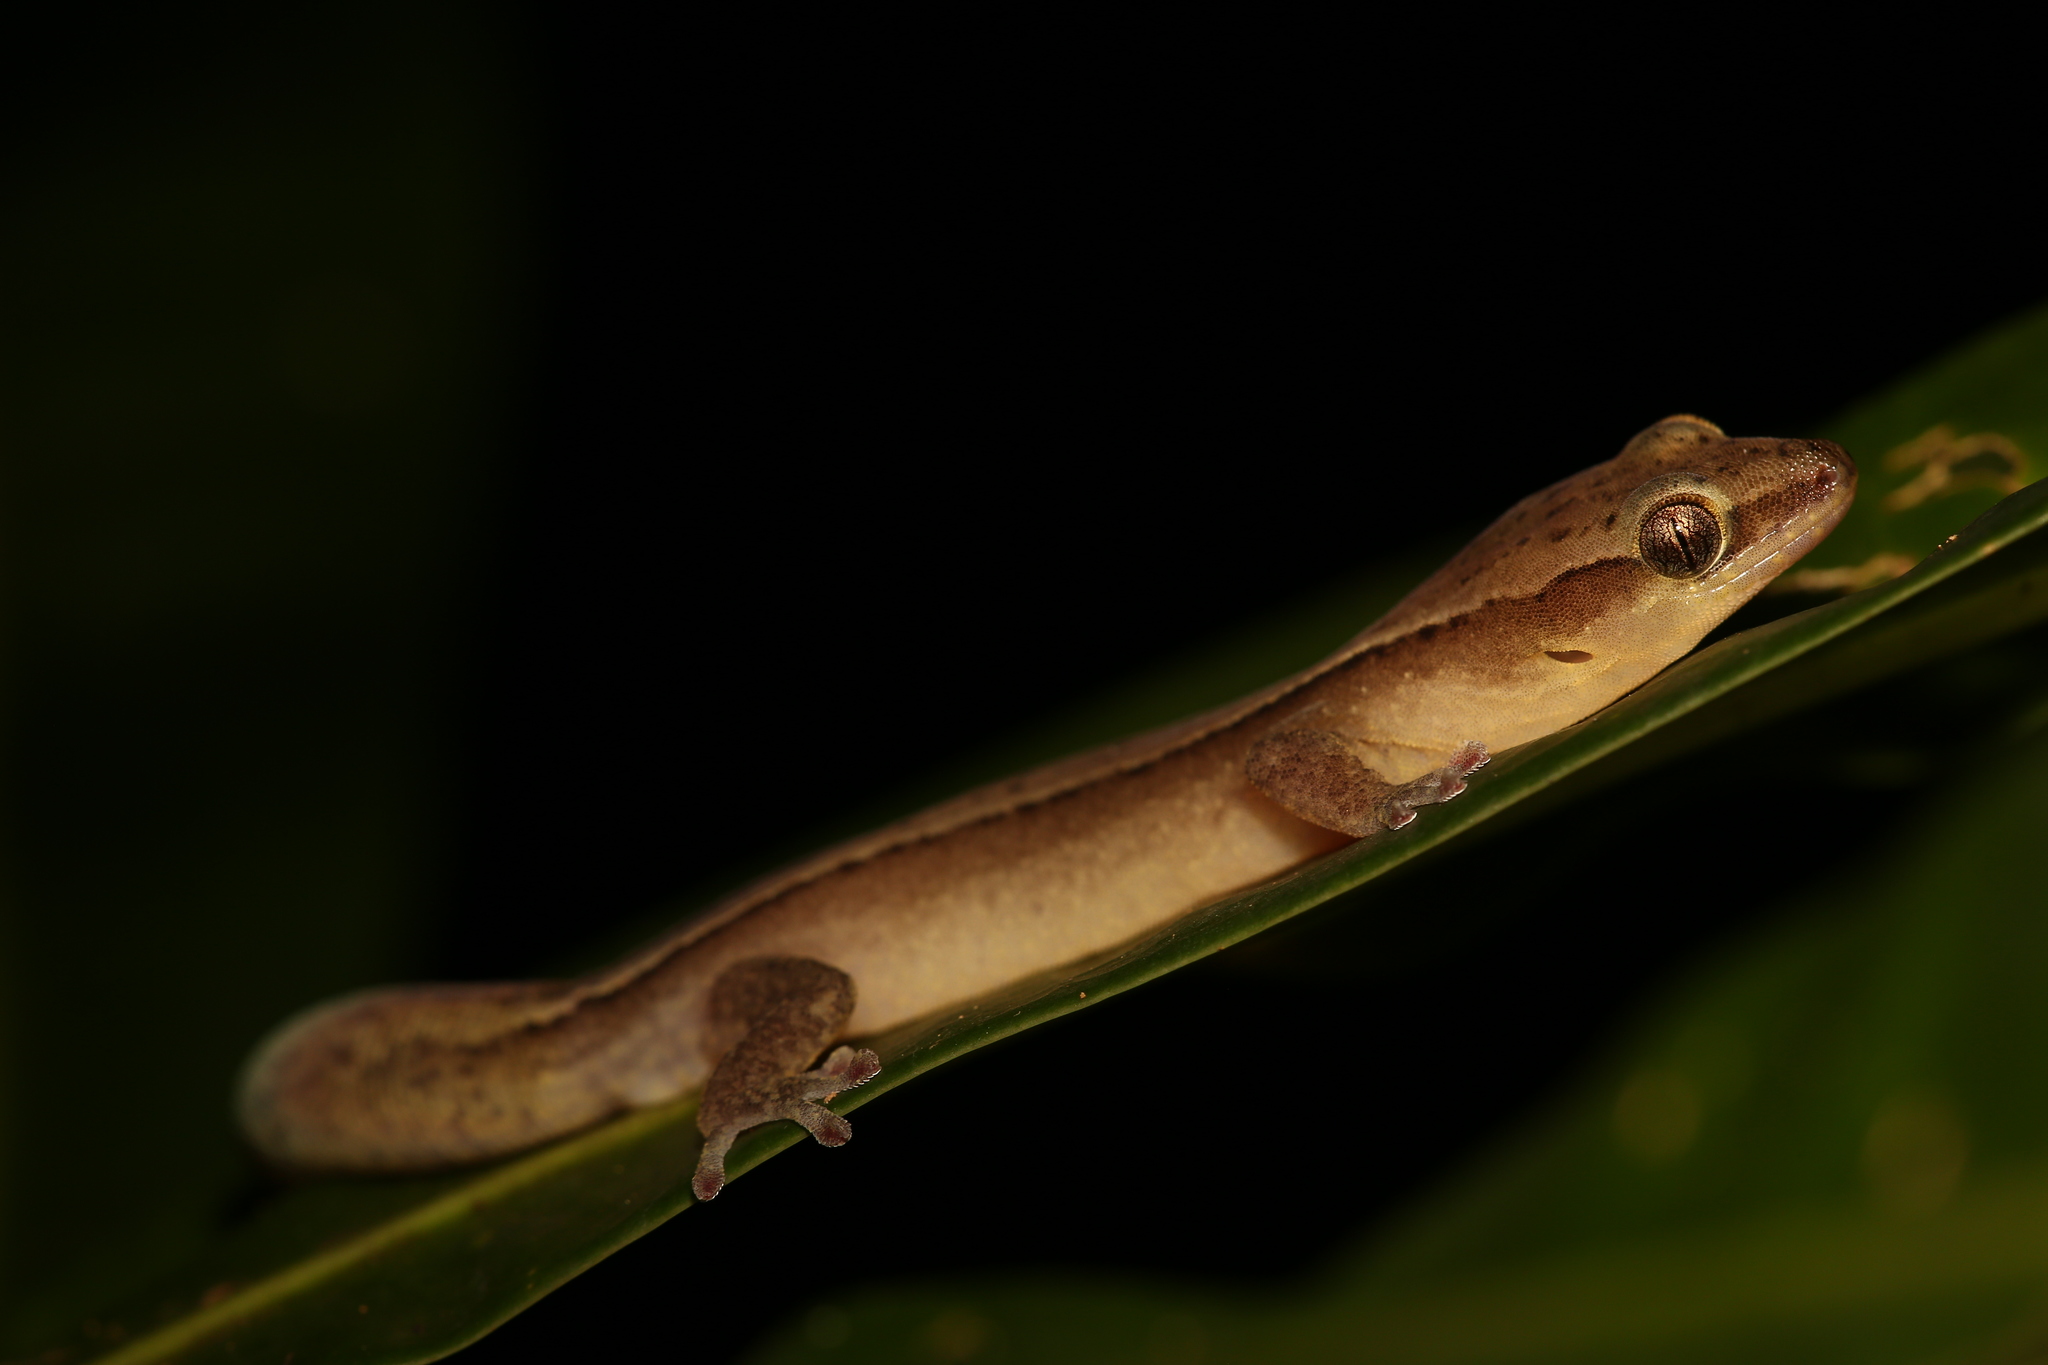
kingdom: Animalia
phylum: Chordata
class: Squamata
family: Diplodactylidae
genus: Dierogekko
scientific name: Dierogekko nehoueensis
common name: Striped gekko
